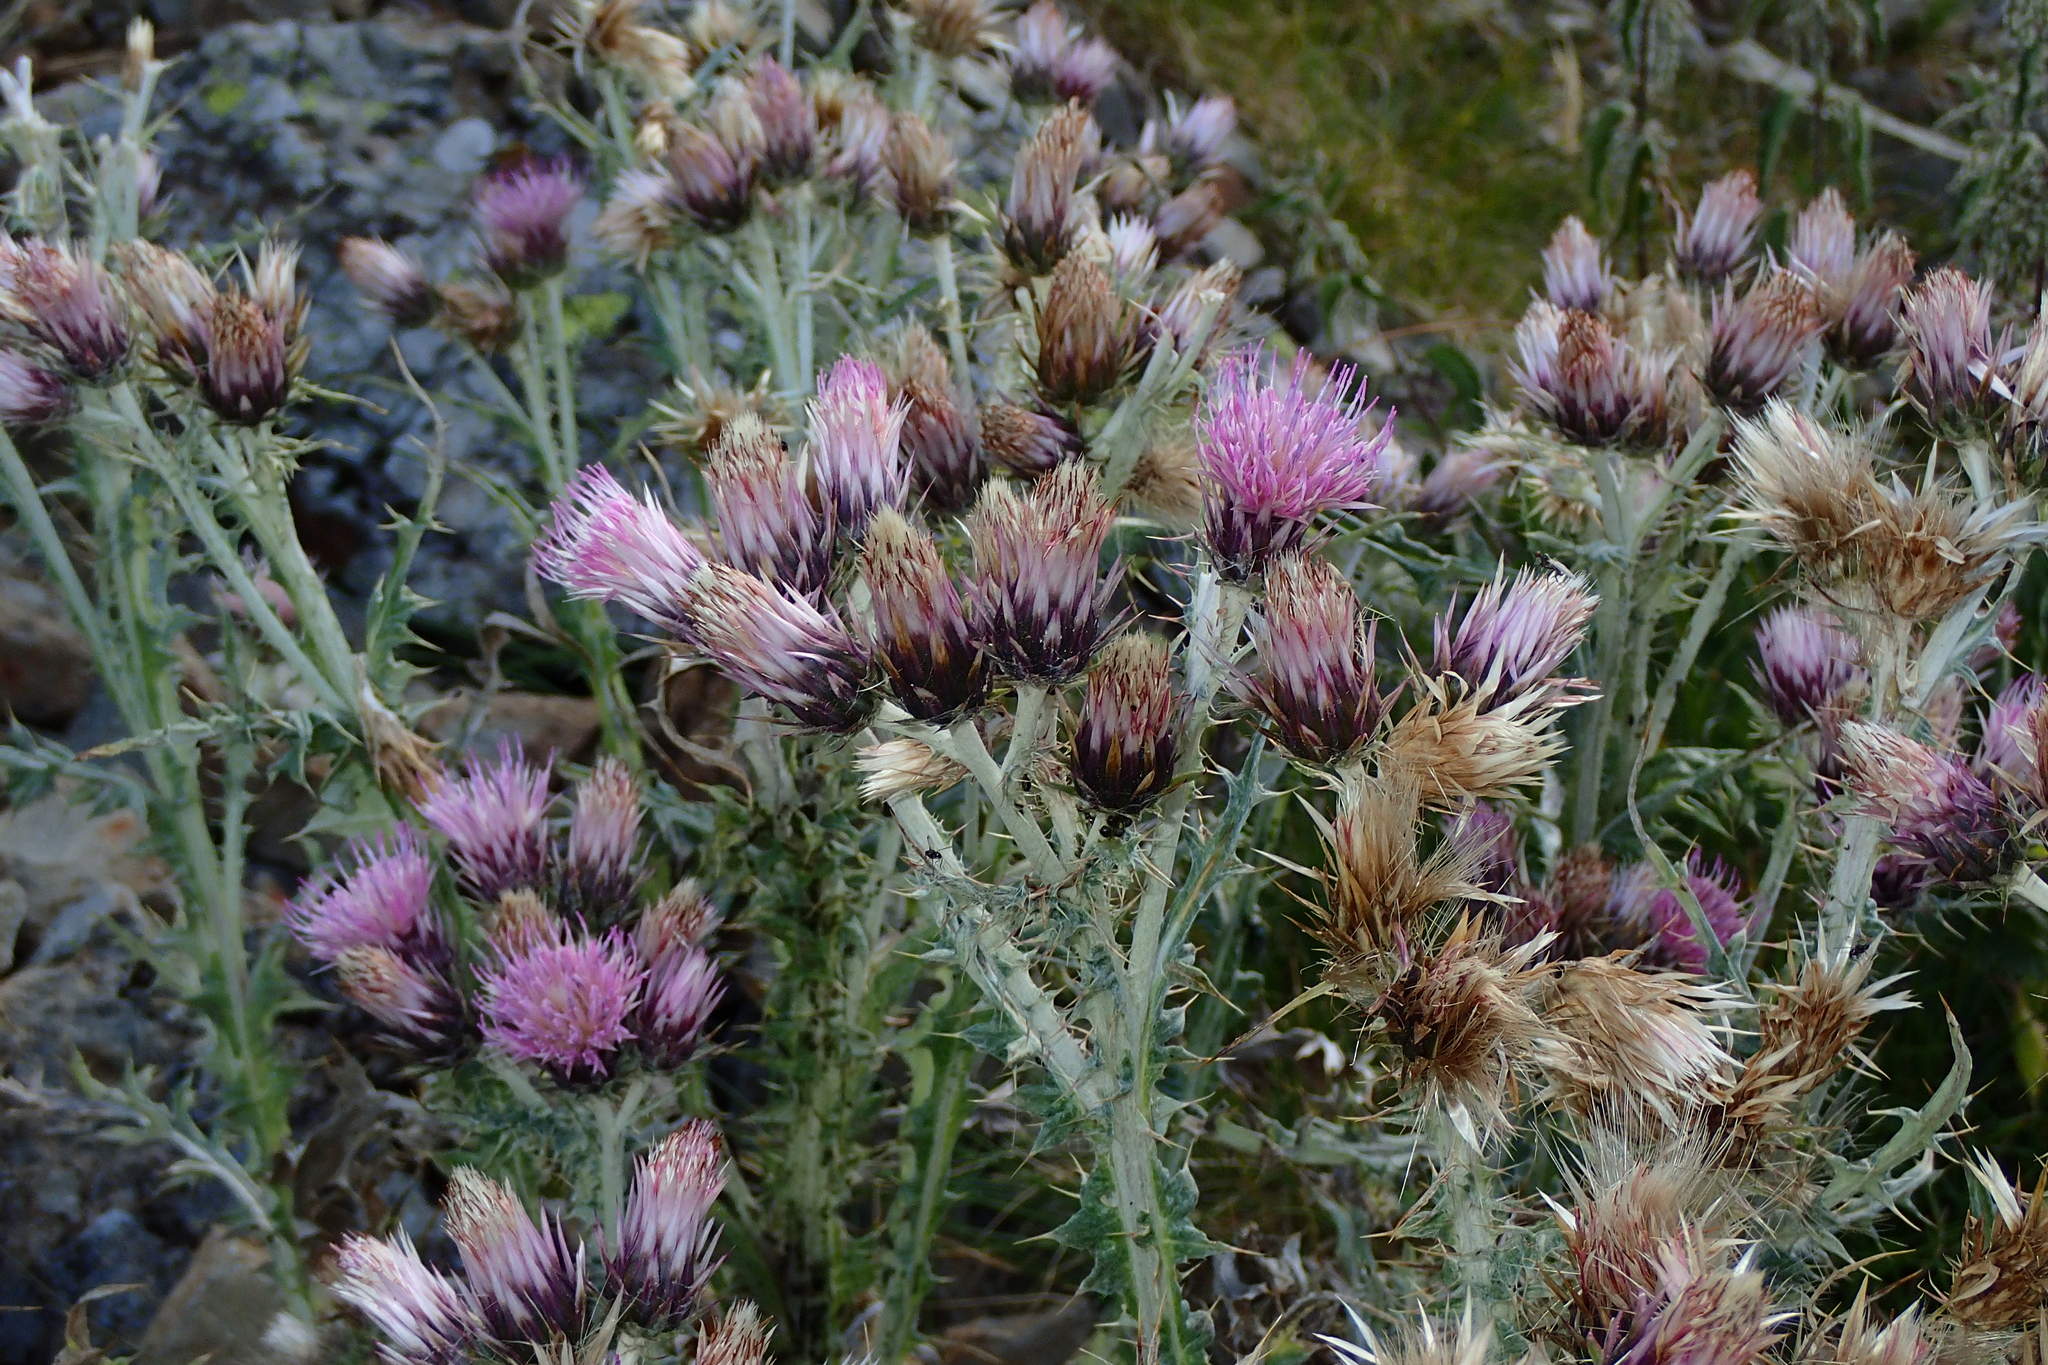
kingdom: Plantae
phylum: Tracheophyta
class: Magnoliopsida
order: Asterales
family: Asteraceae
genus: Carduus
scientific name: Carduus carlinoides
